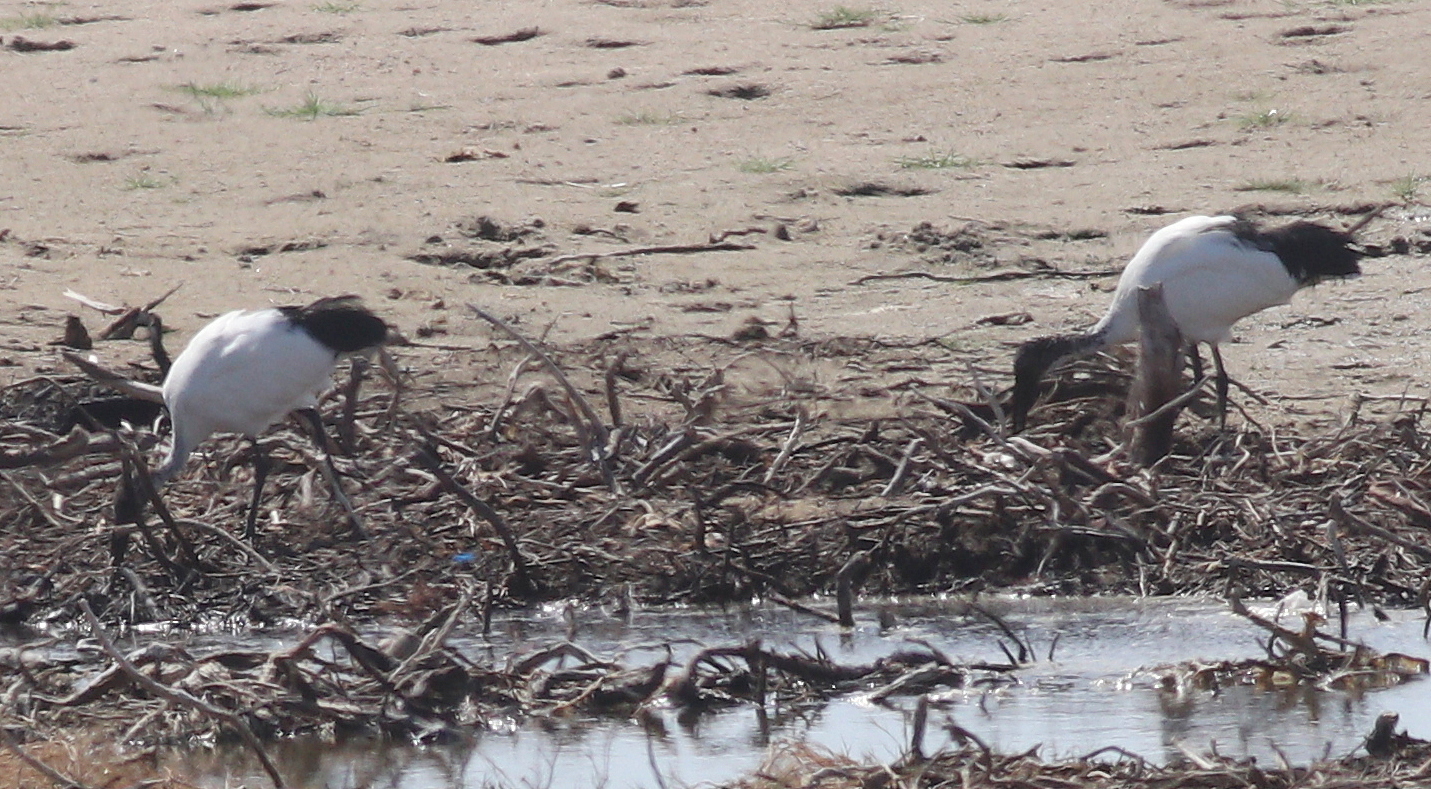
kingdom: Animalia
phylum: Chordata
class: Aves
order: Pelecaniformes
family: Threskiornithidae
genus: Threskiornis
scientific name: Threskiornis aethiopicus
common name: Sacred ibis
